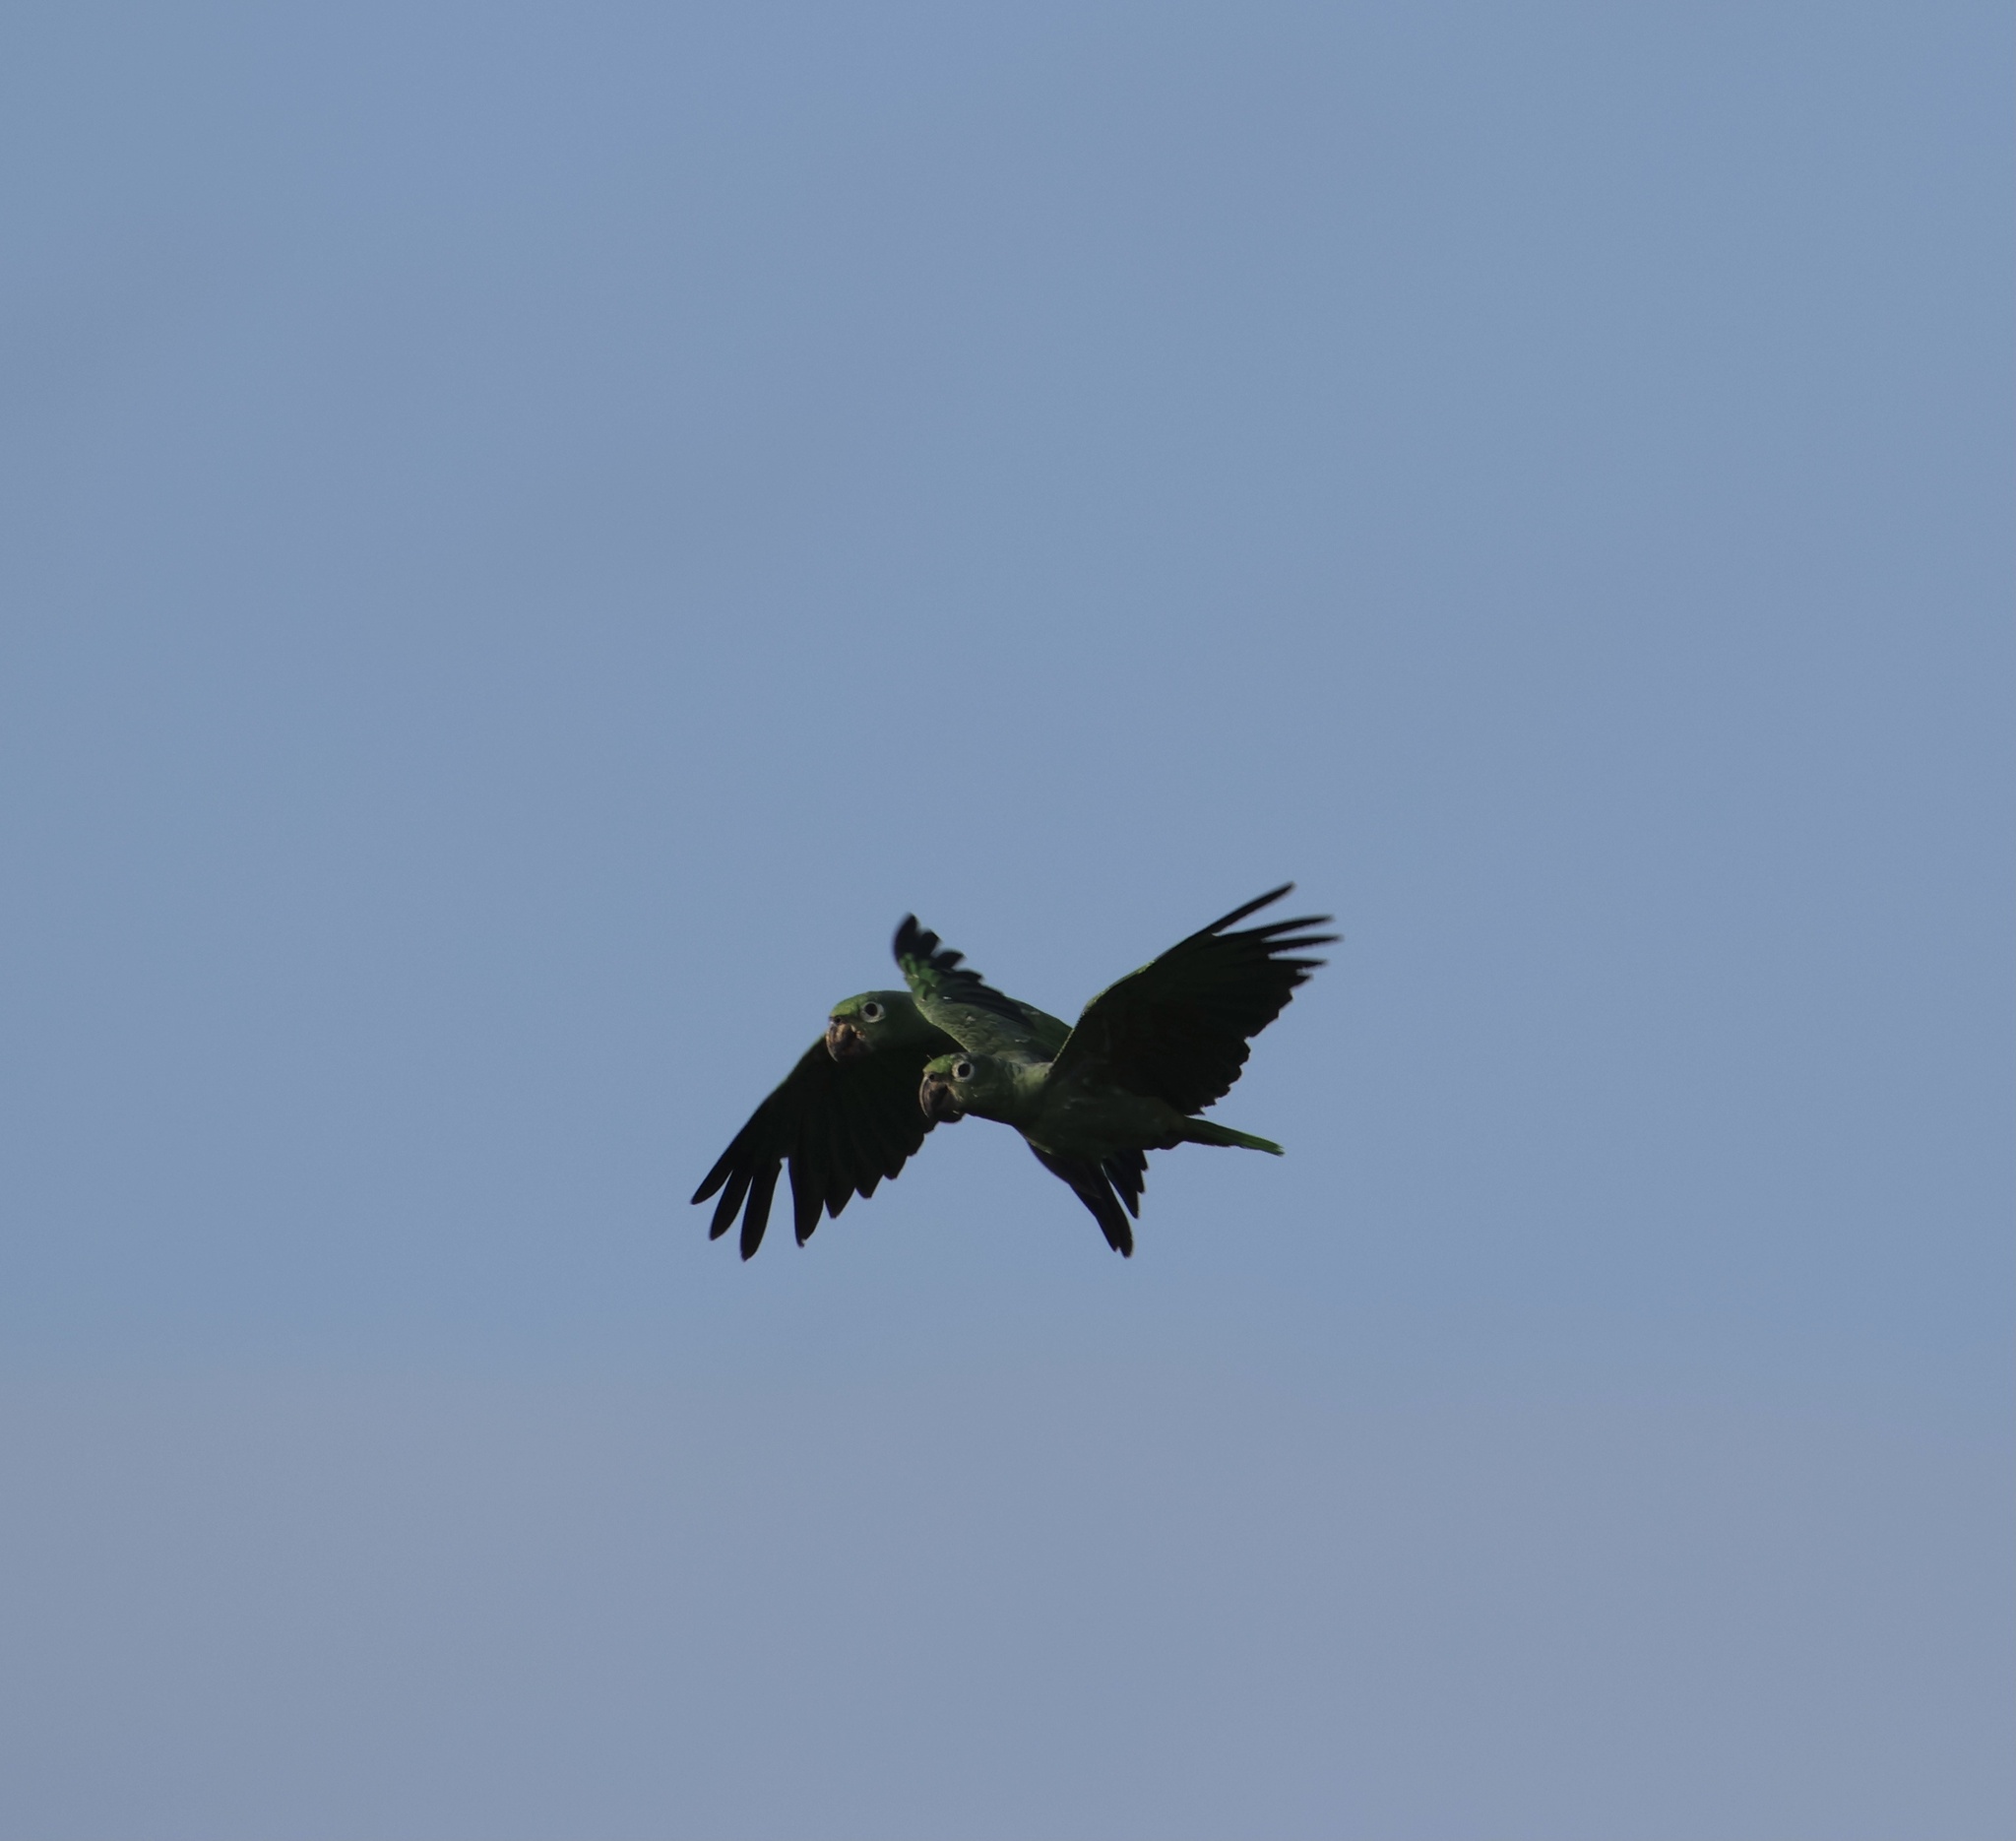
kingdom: Animalia
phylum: Chordata
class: Aves
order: Psittaciformes
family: Psittacidae
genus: Amazona
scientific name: Amazona farinosa
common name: Mealy parrot
